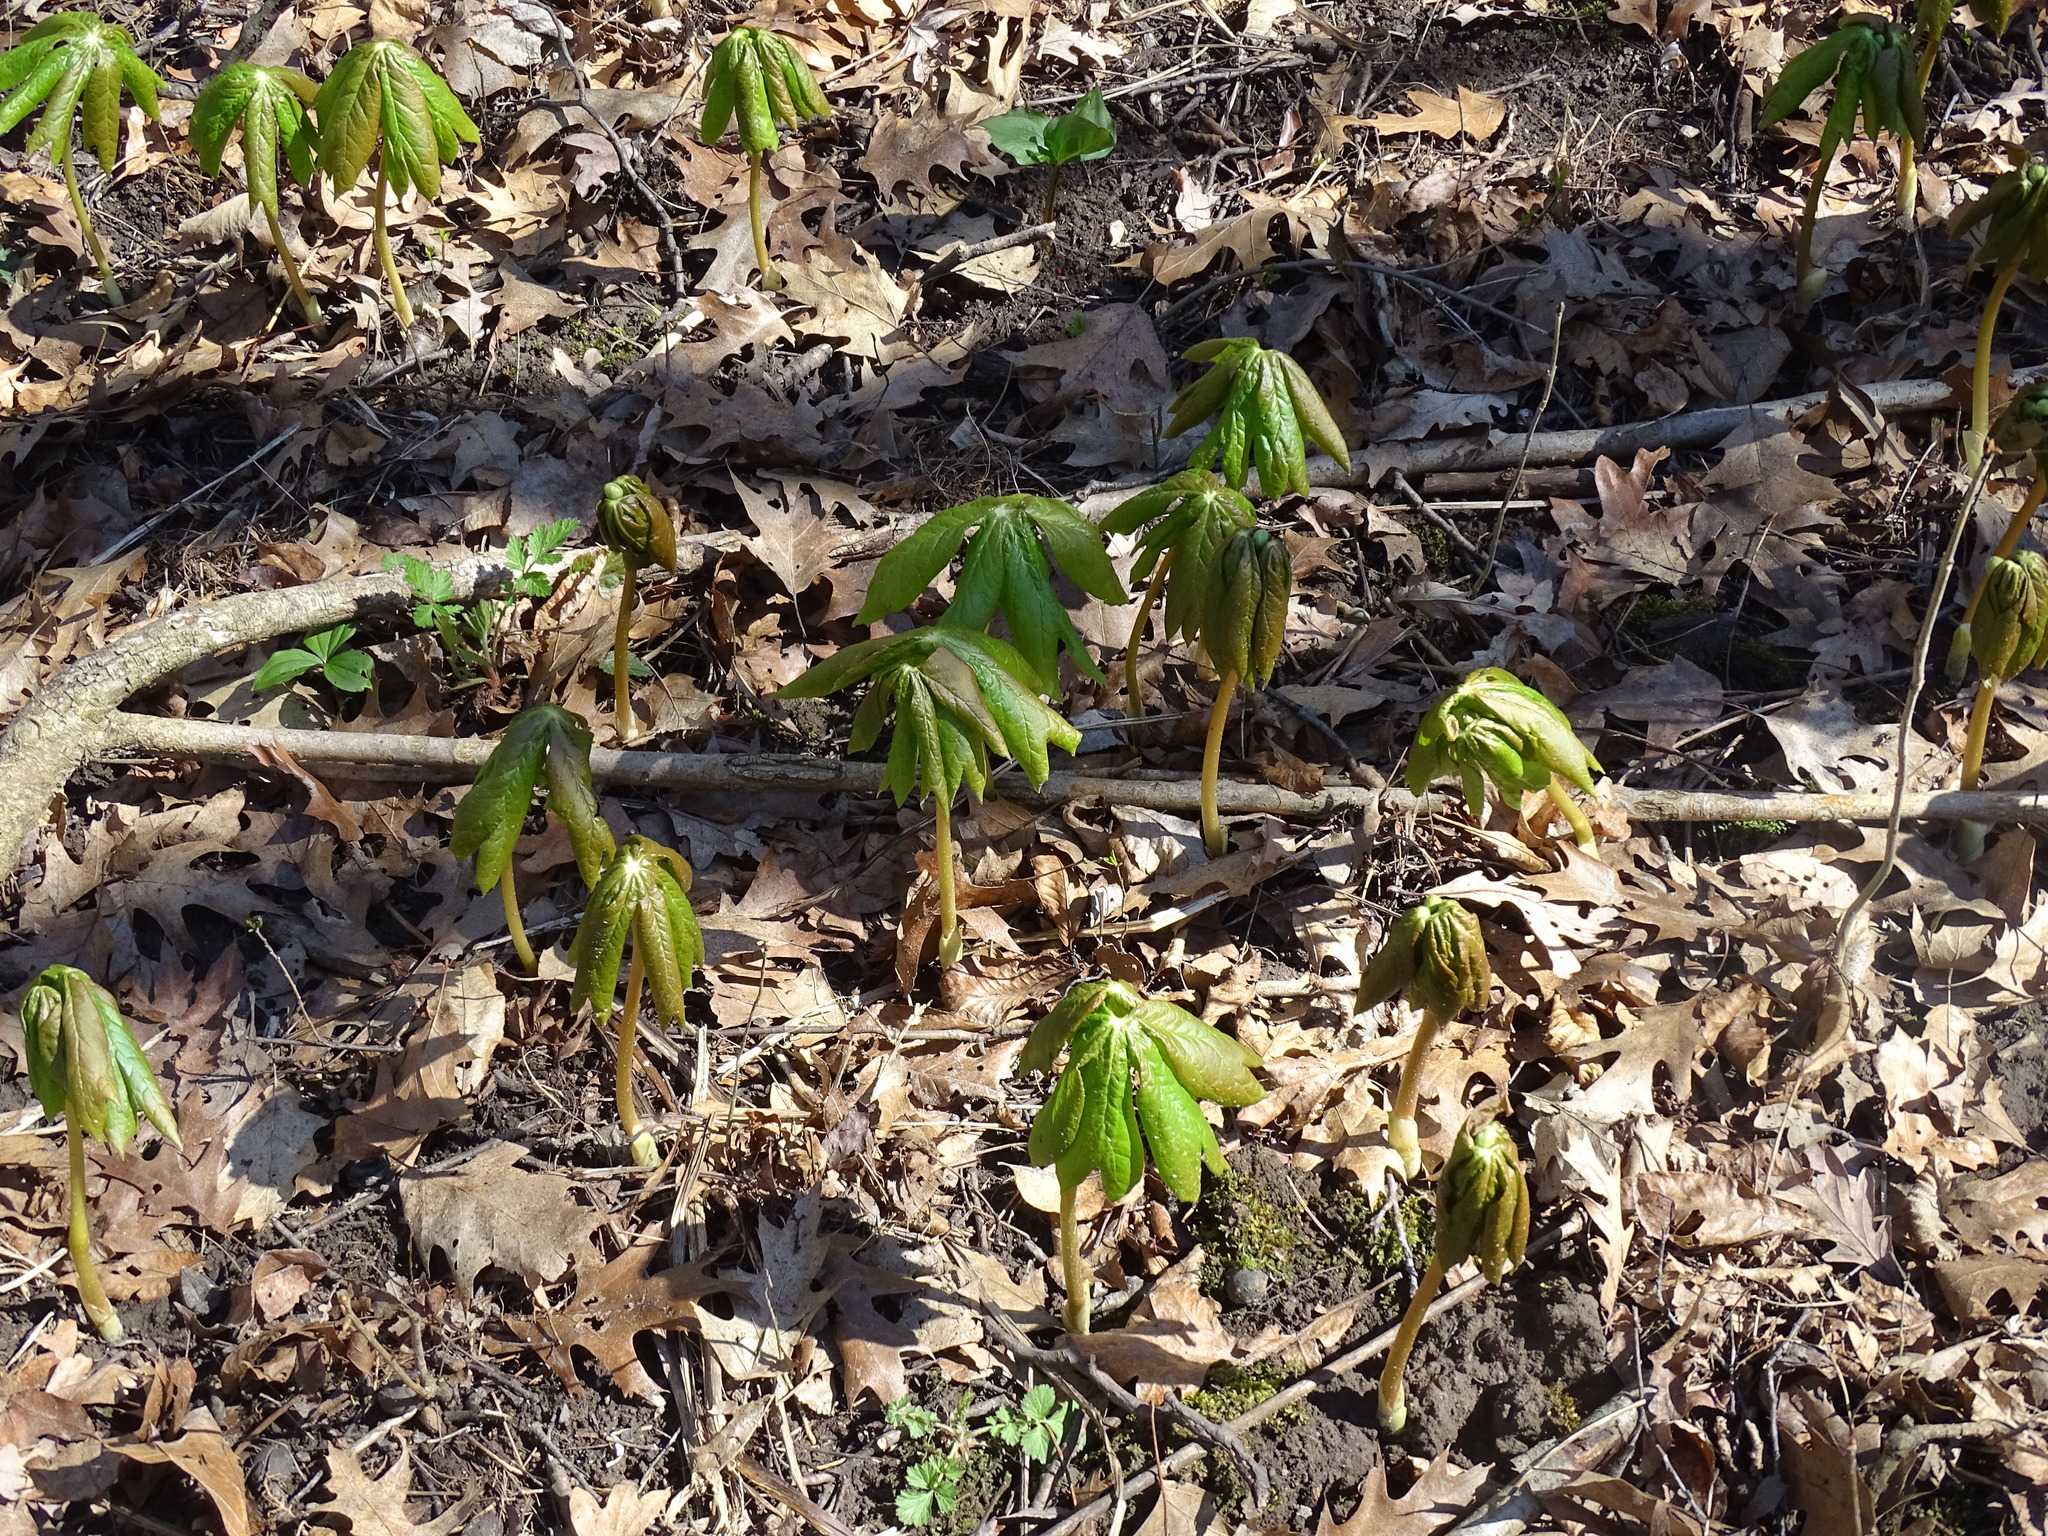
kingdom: Plantae
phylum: Tracheophyta
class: Magnoliopsida
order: Ranunculales
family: Berberidaceae
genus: Podophyllum
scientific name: Podophyllum peltatum
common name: Wild mandrake
